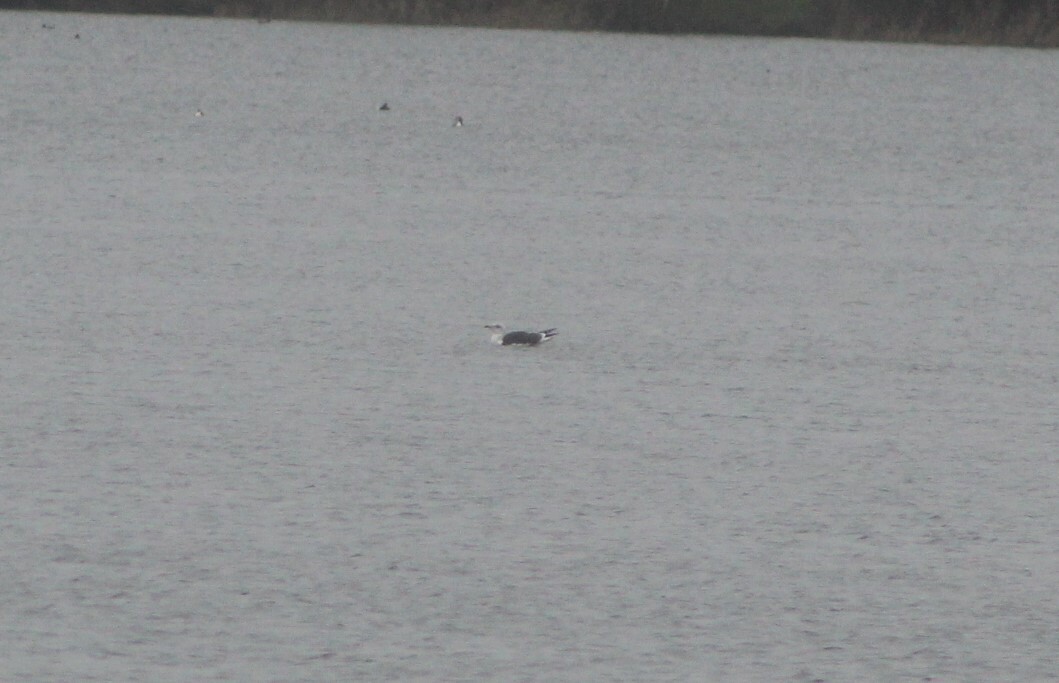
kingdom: Animalia
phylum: Chordata
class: Aves
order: Charadriiformes
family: Laridae
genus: Larus
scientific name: Larus fuscus
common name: Lesser black-backed gull
